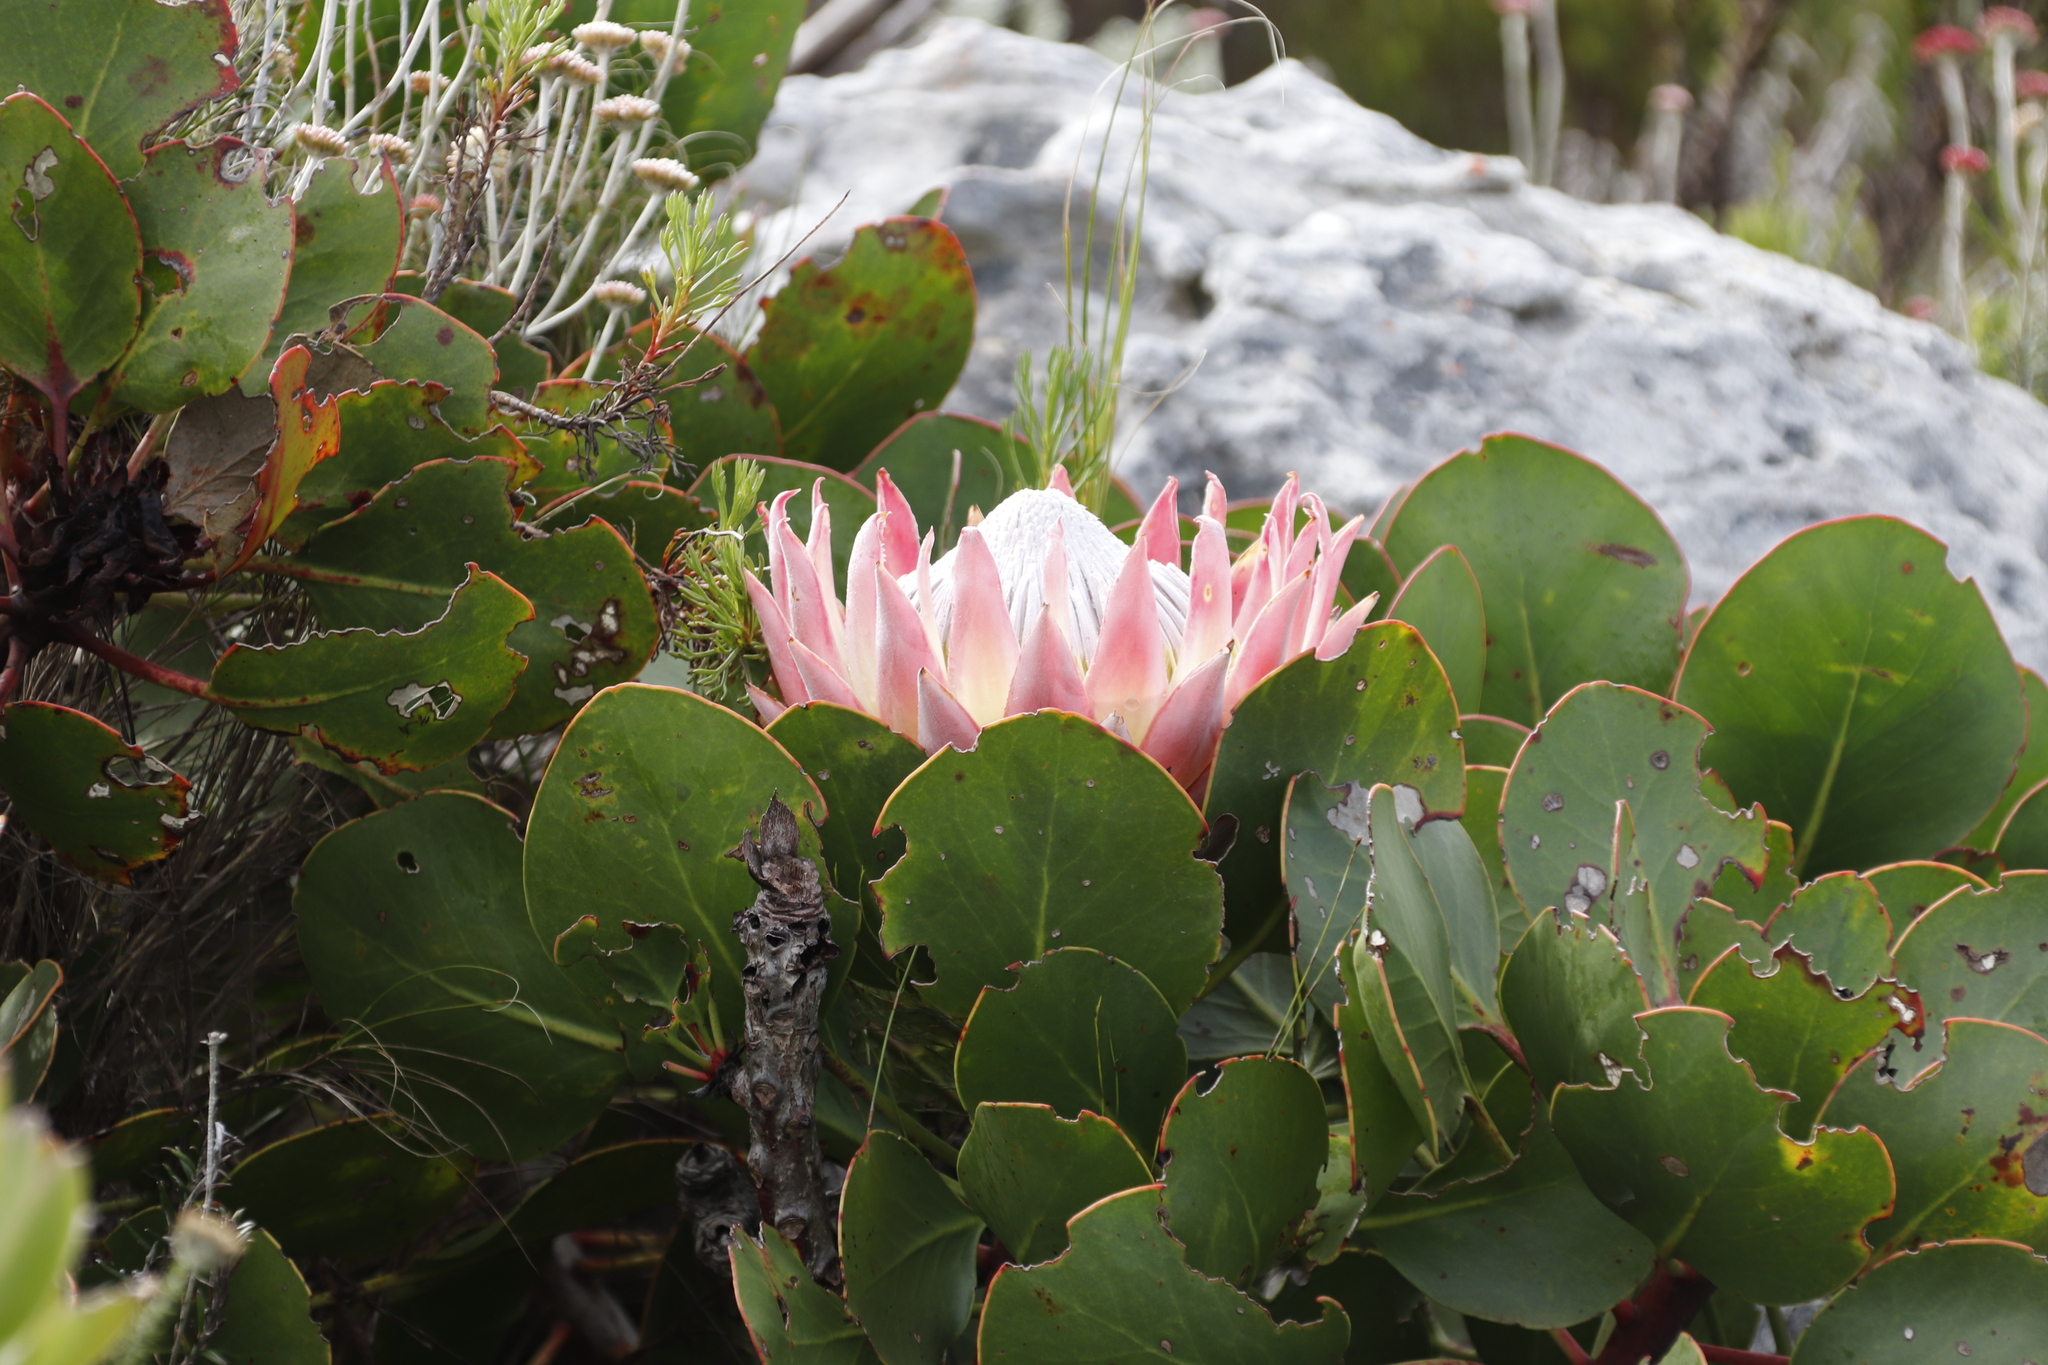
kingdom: Plantae
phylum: Tracheophyta
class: Magnoliopsida
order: Proteales
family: Proteaceae
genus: Protea
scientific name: Protea cynaroides
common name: King protea
